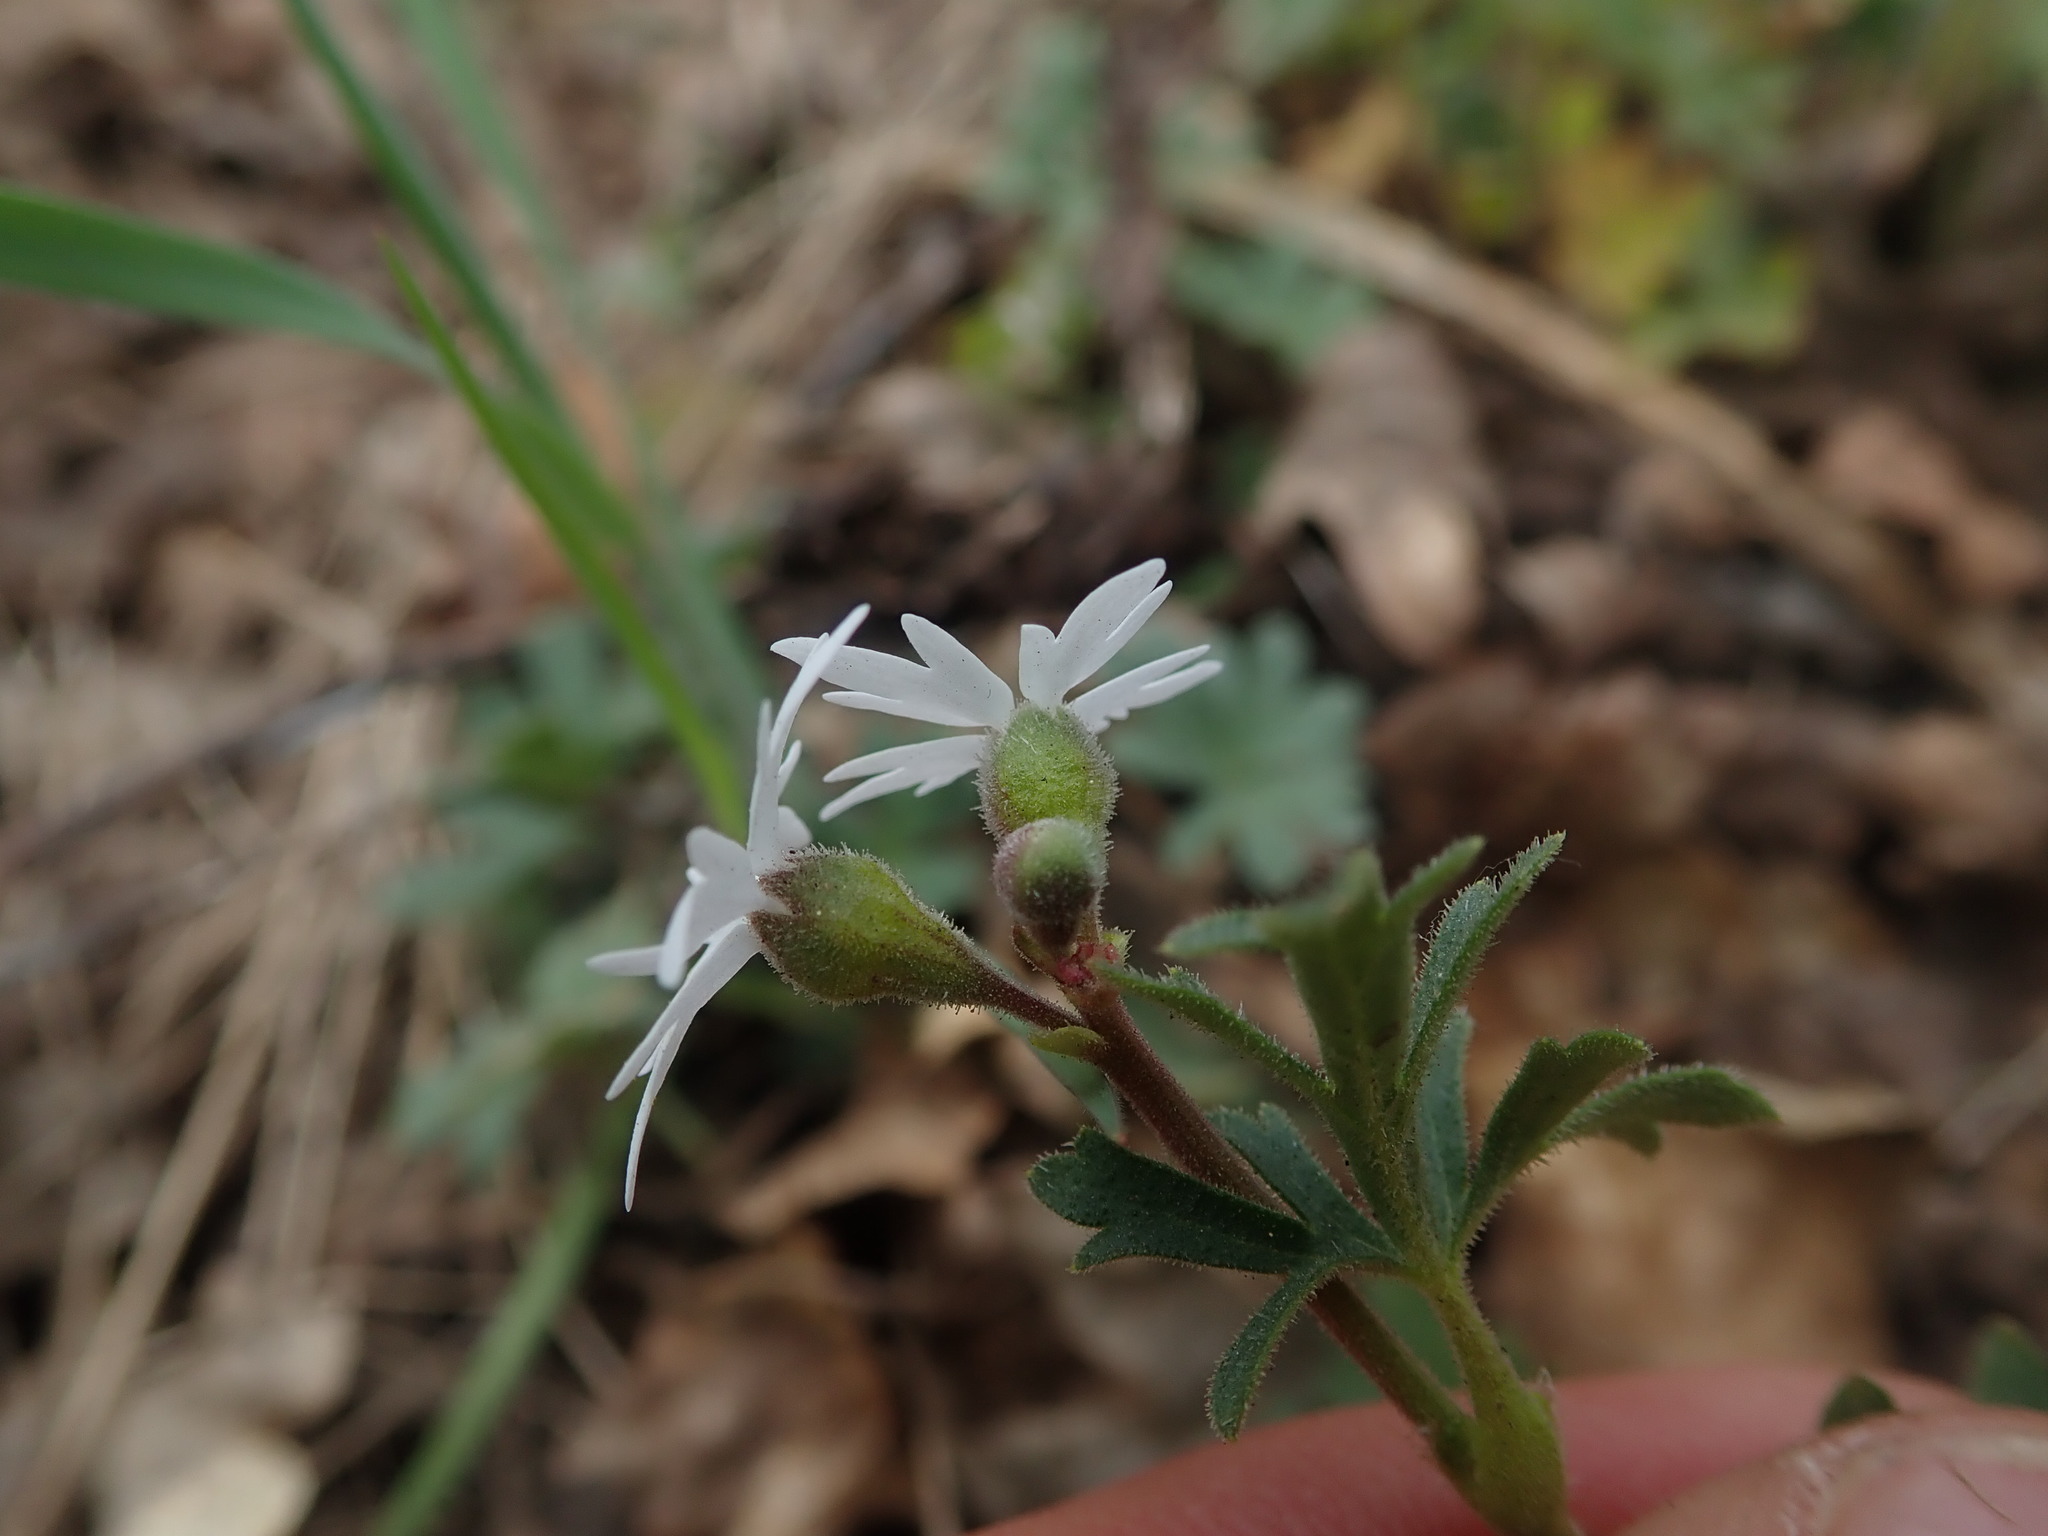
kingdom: Plantae
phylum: Tracheophyta
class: Magnoliopsida
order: Saxifragales
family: Saxifragaceae
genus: Lithophragma
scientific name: Lithophragma parviflorum
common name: Small-flowered fringe-cup
